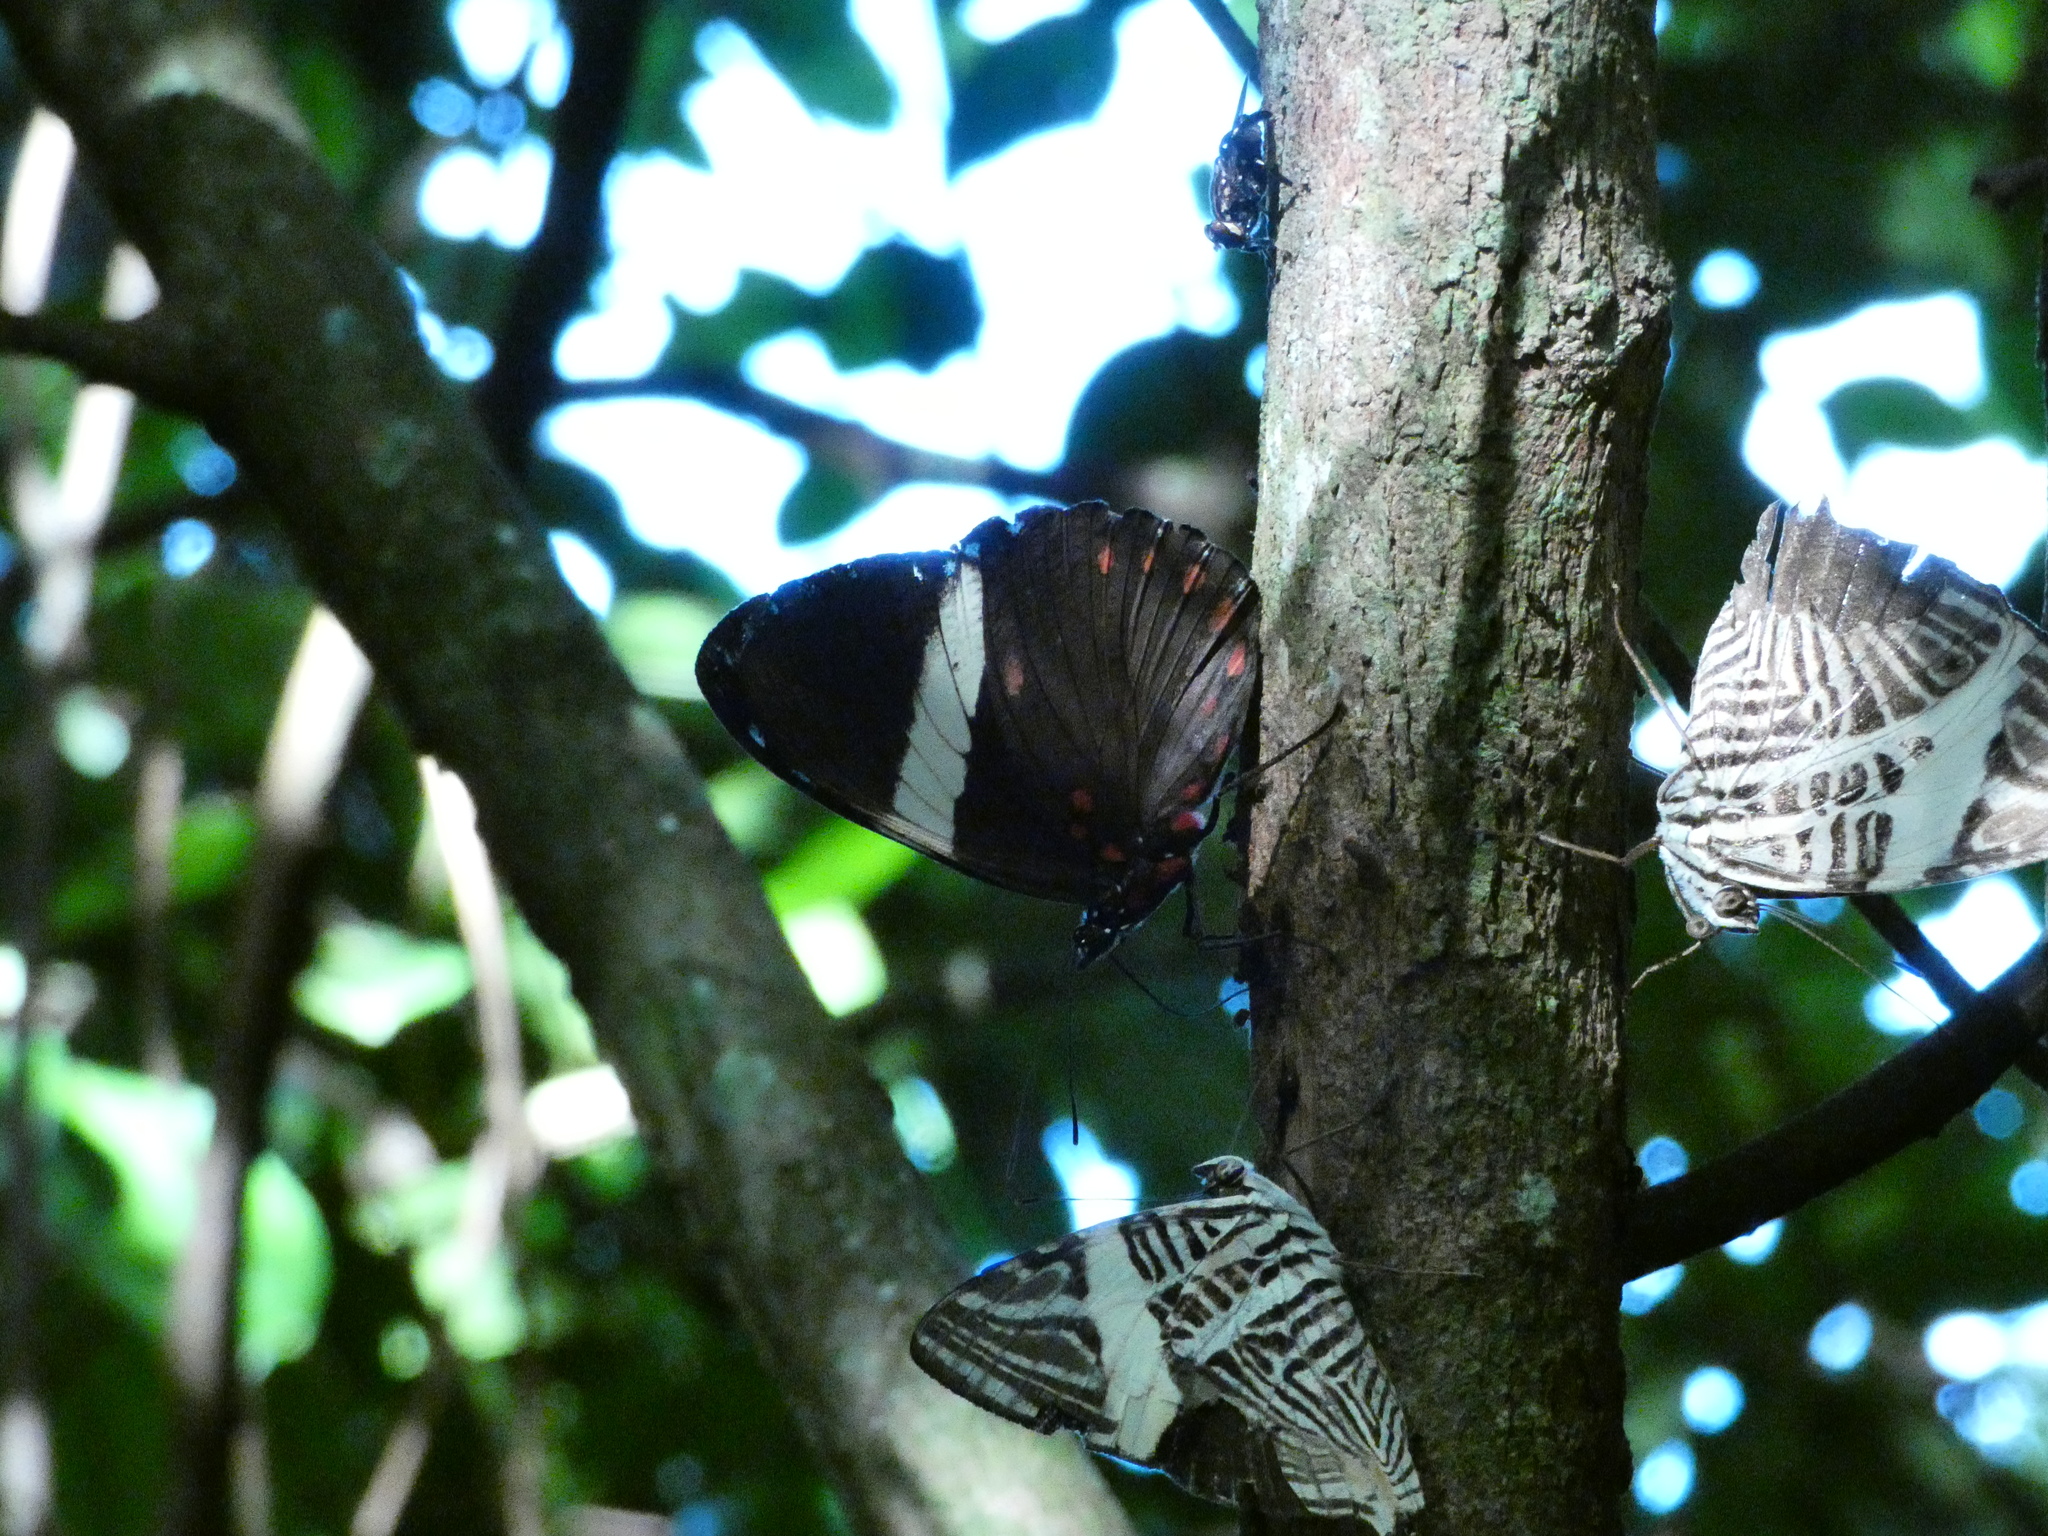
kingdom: Animalia
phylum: Arthropoda
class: Insecta
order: Lepidoptera
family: Nymphalidae
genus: Colobura
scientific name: Colobura dirce
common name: Dirce beauty
